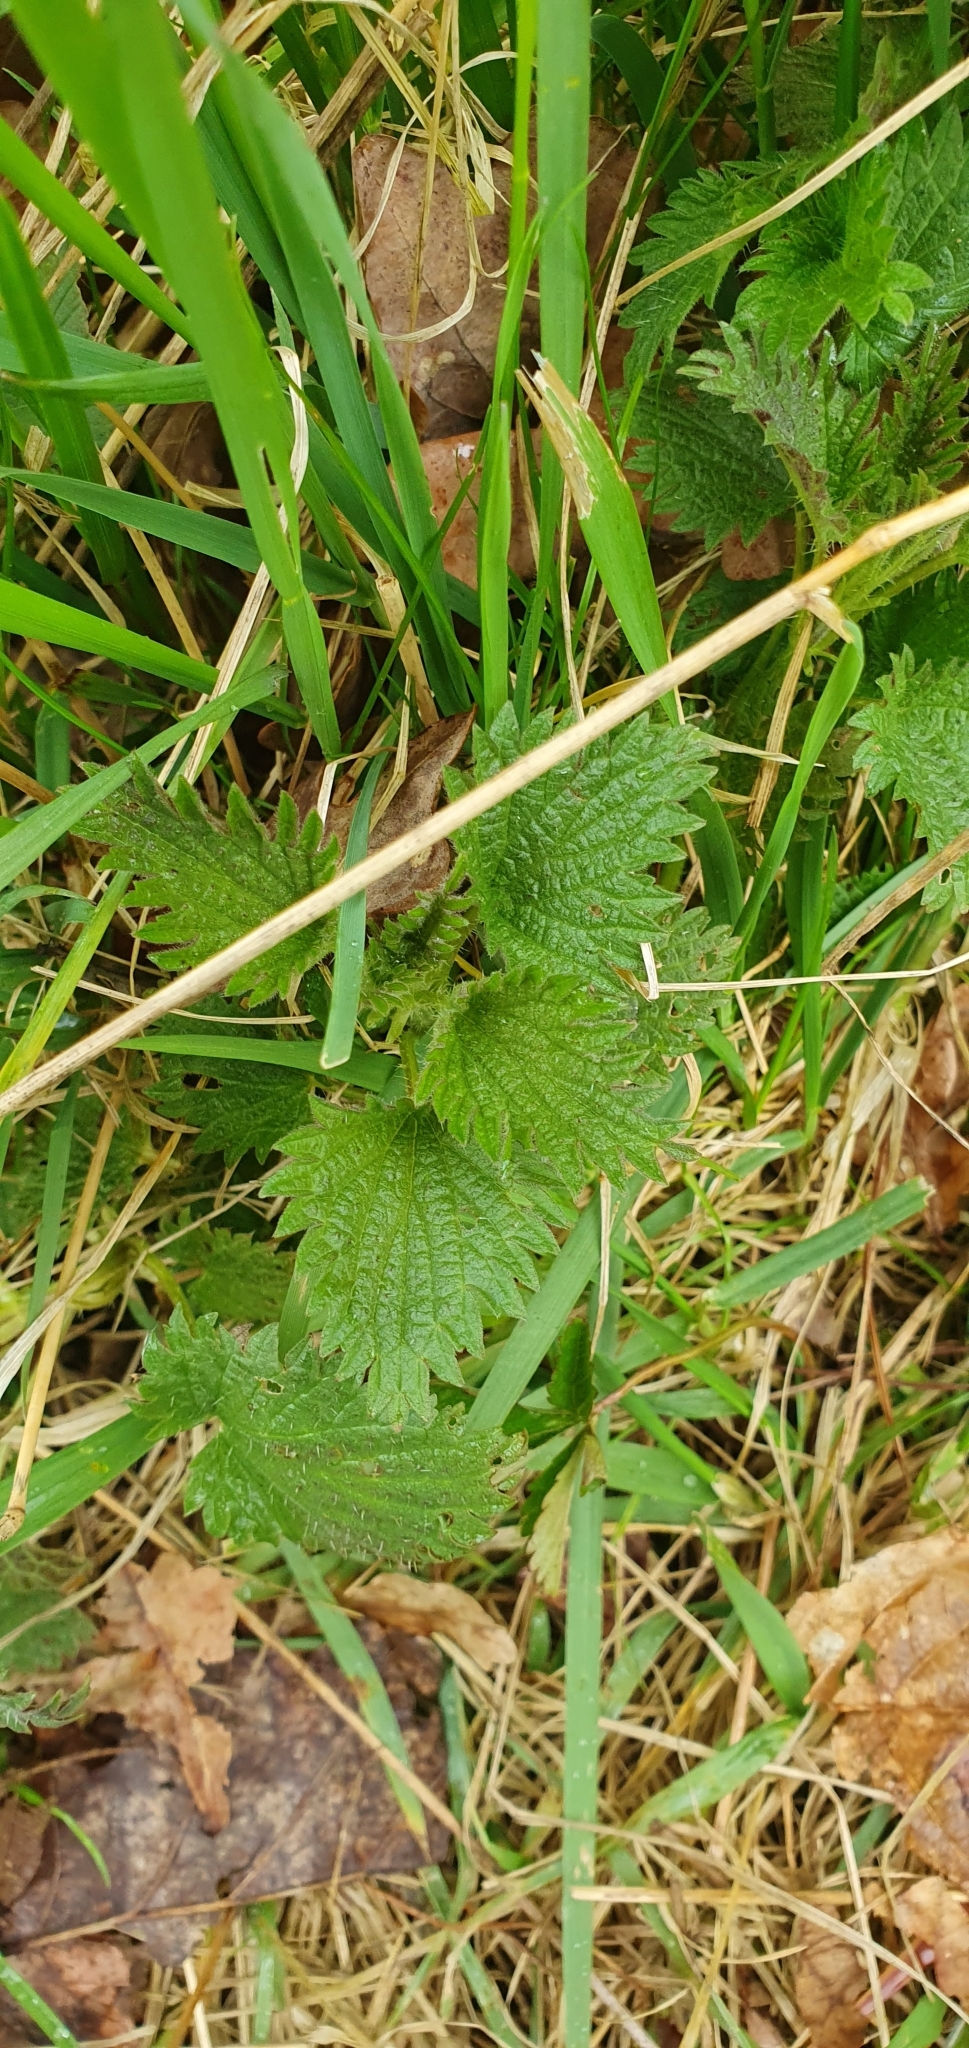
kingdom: Plantae
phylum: Tracheophyta
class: Magnoliopsida
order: Rosales
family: Urticaceae
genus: Urtica
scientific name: Urtica dioica
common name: Common nettle
